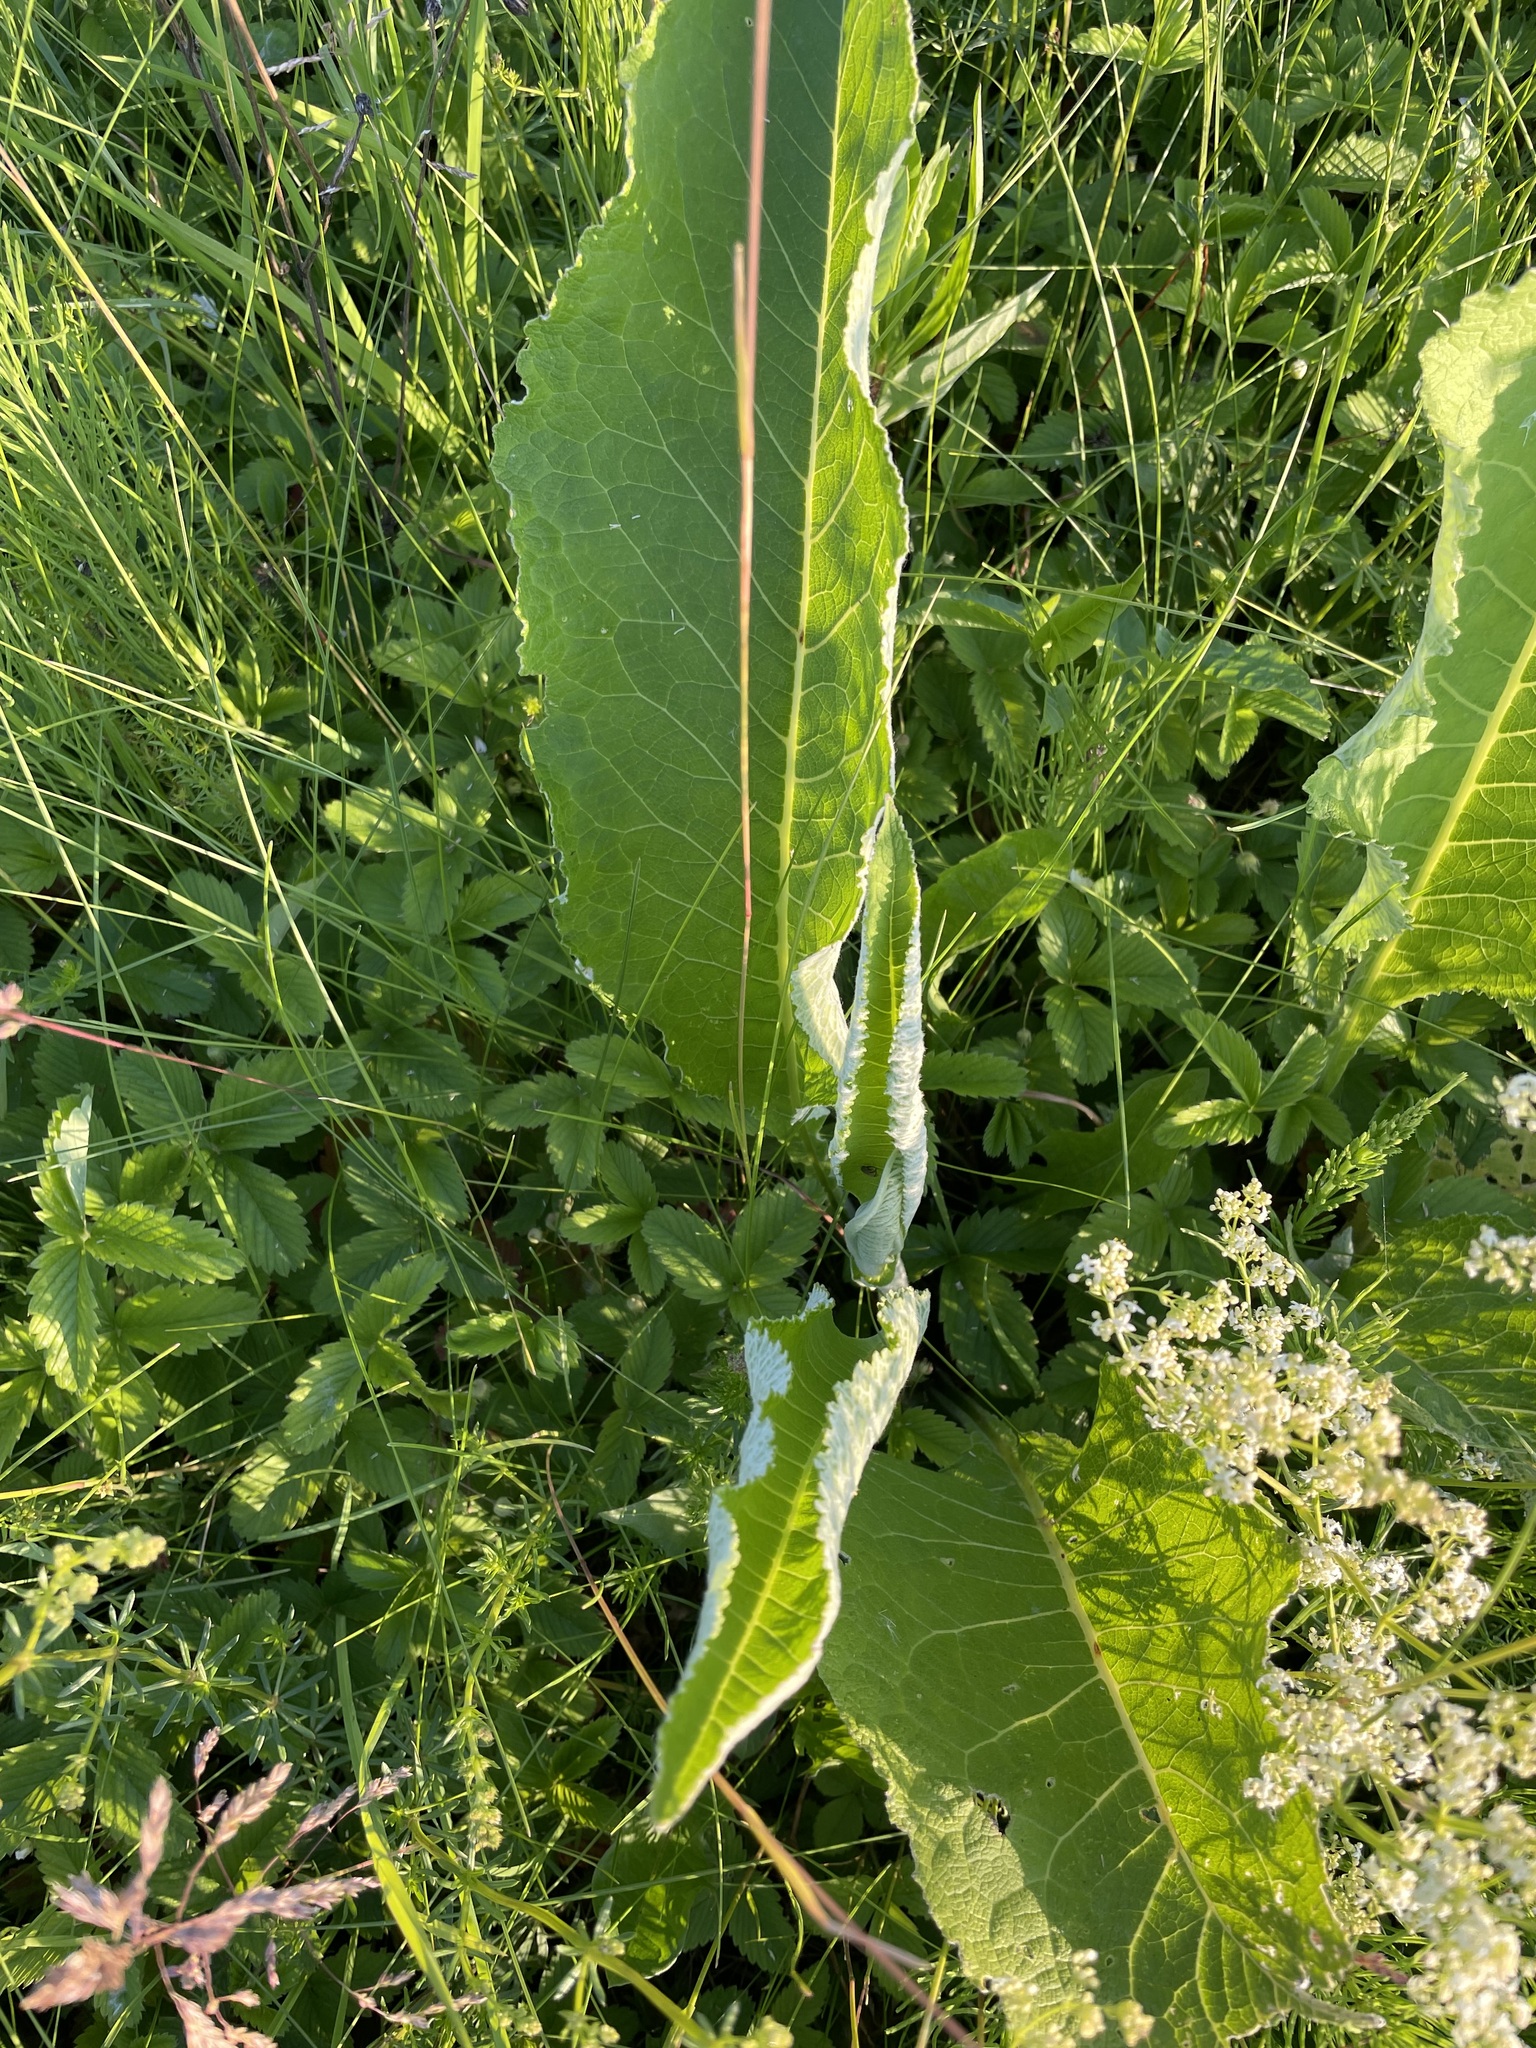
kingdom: Plantae
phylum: Tracheophyta
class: Magnoliopsida
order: Asterales
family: Asteraceae
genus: Inula
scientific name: Inula helenium
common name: Elecampane
